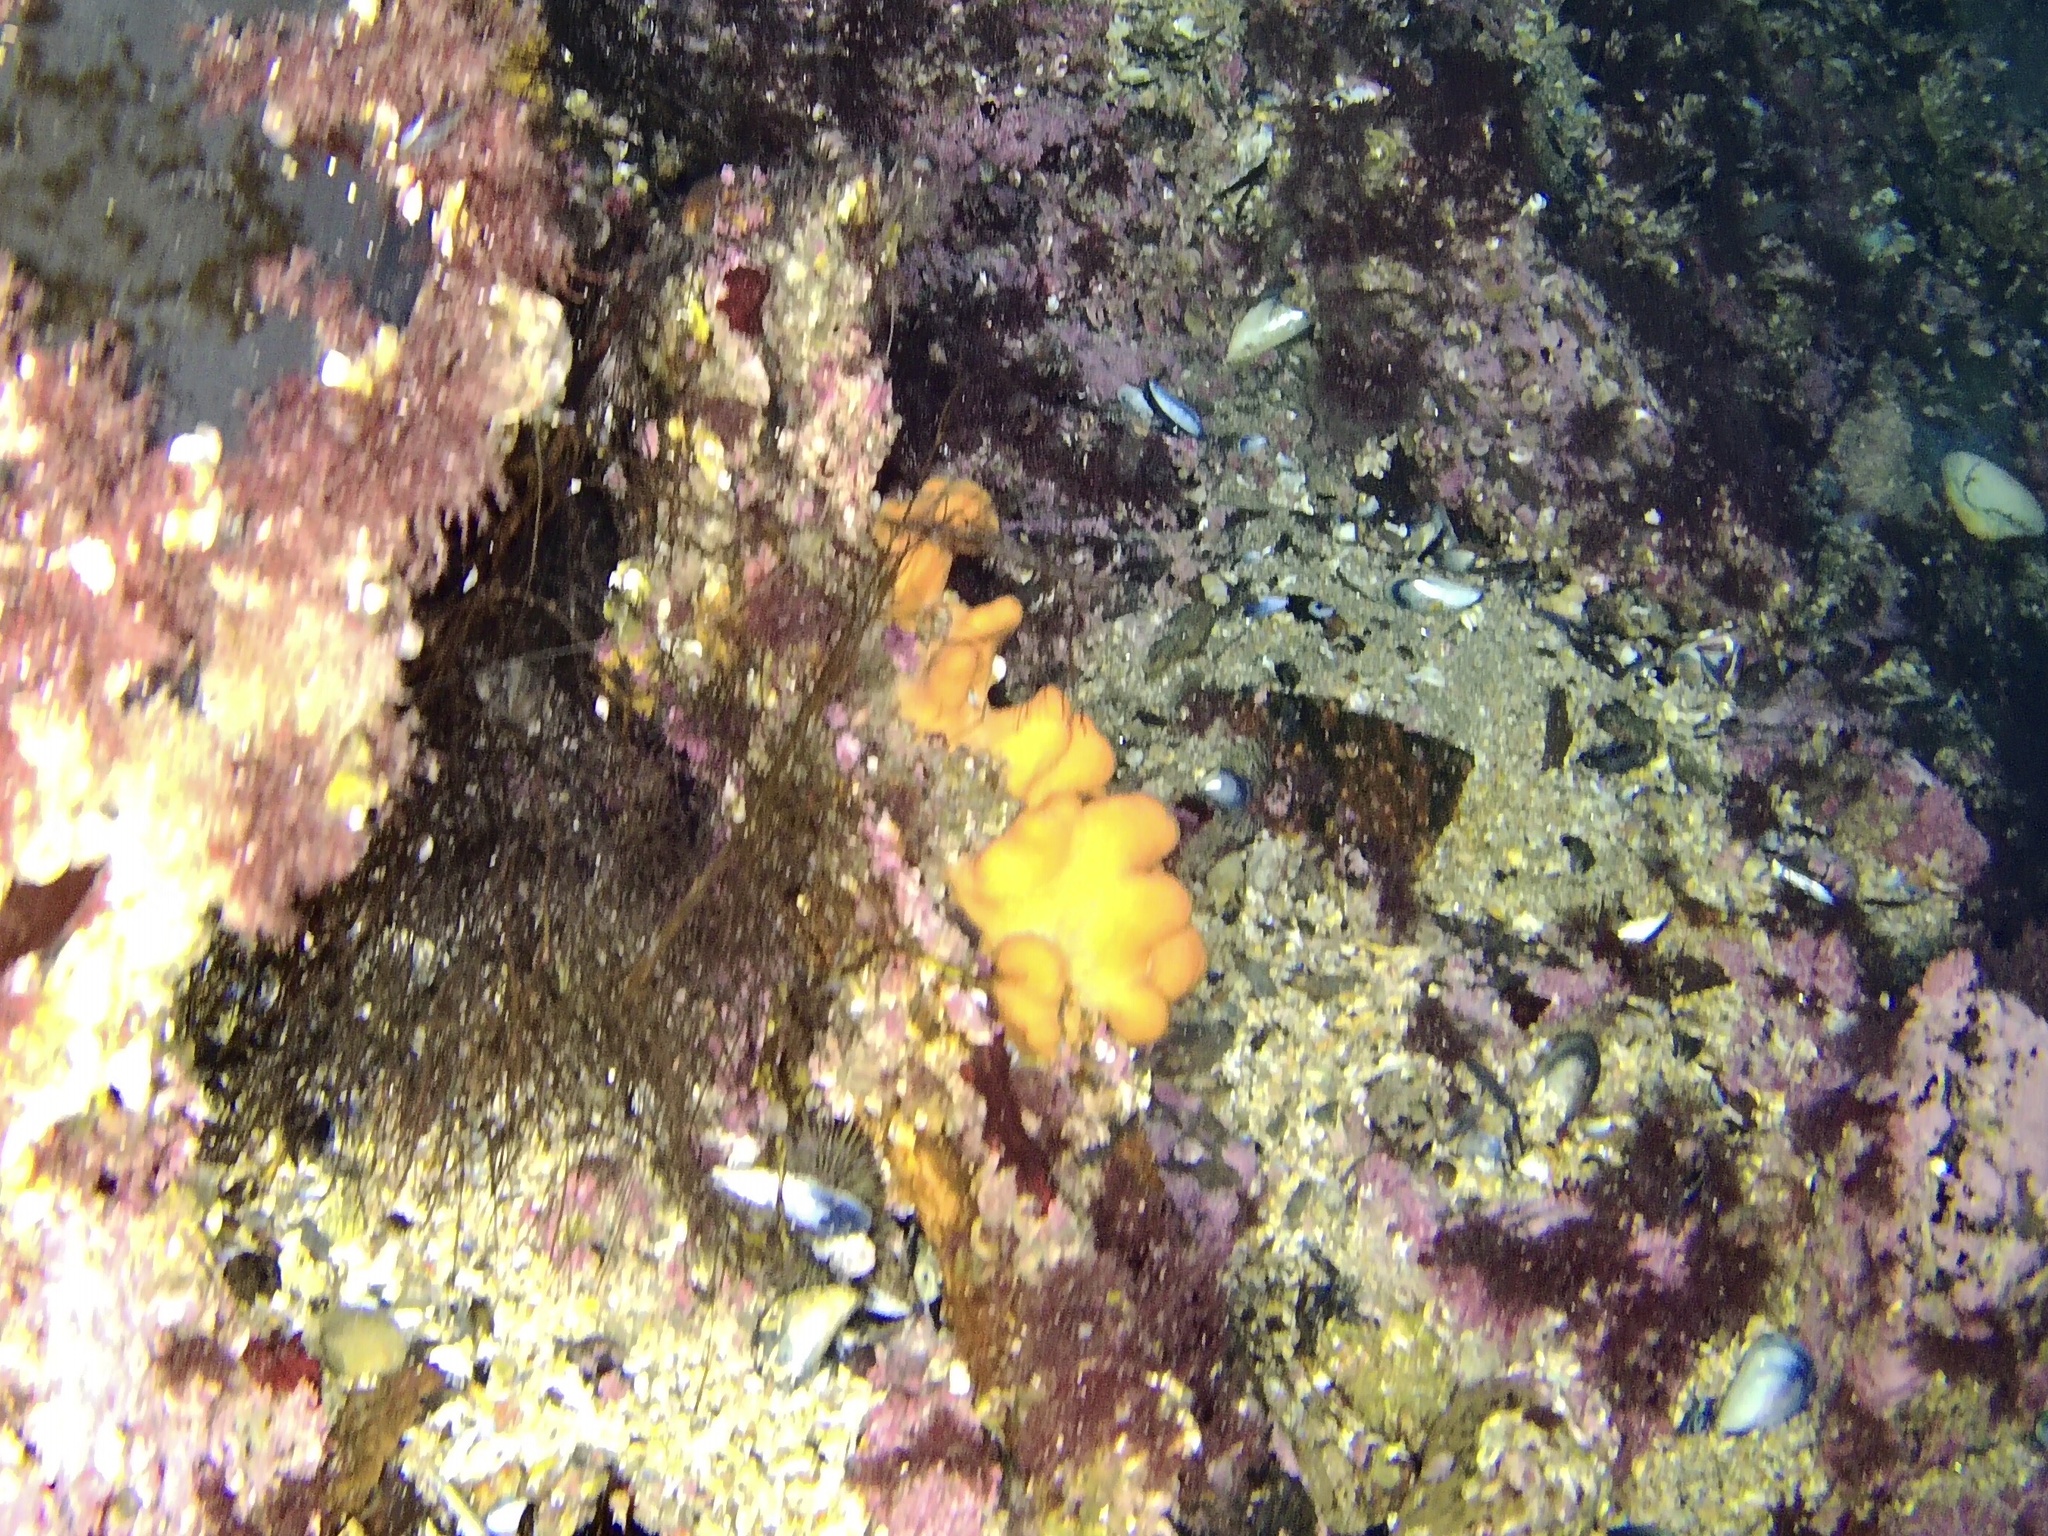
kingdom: Animalia
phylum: Cnidaria
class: Anthozoa
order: Malacalcyonacea
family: Alcyoniidae
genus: Alcyonium
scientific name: Alcyonium digitatum
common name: Dead man's fingers
